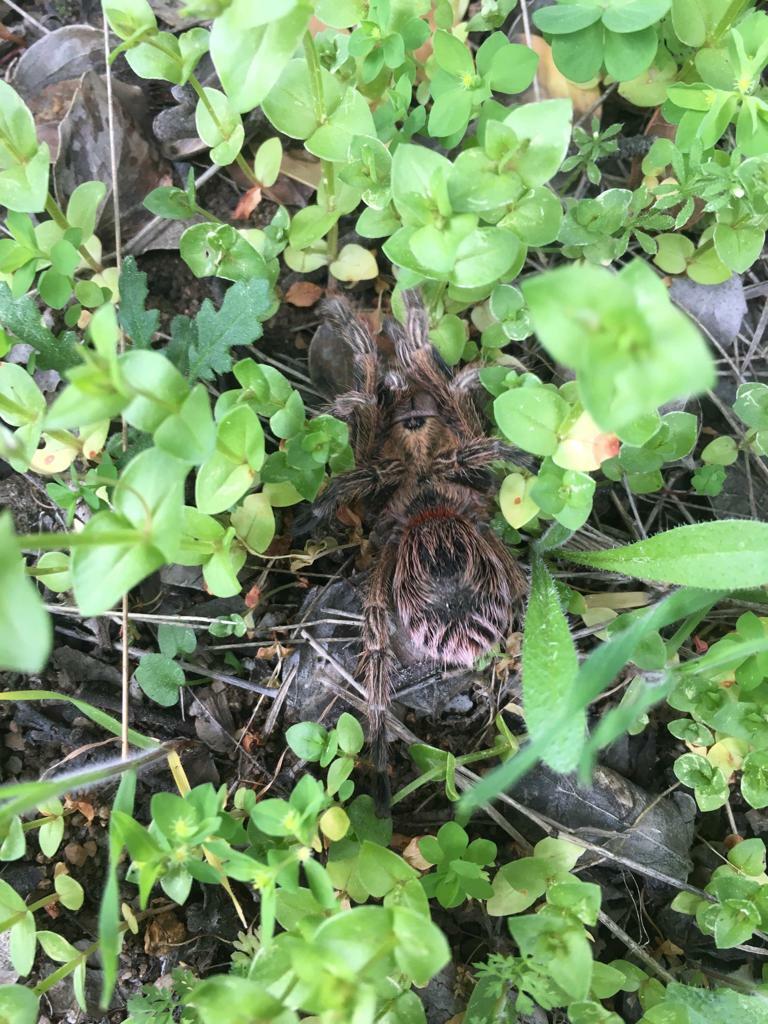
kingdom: Animalia
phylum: Arthropoda
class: Arachnida
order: Araneae
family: Theraphosidae
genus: Euathlus
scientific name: Euathlus manicata
